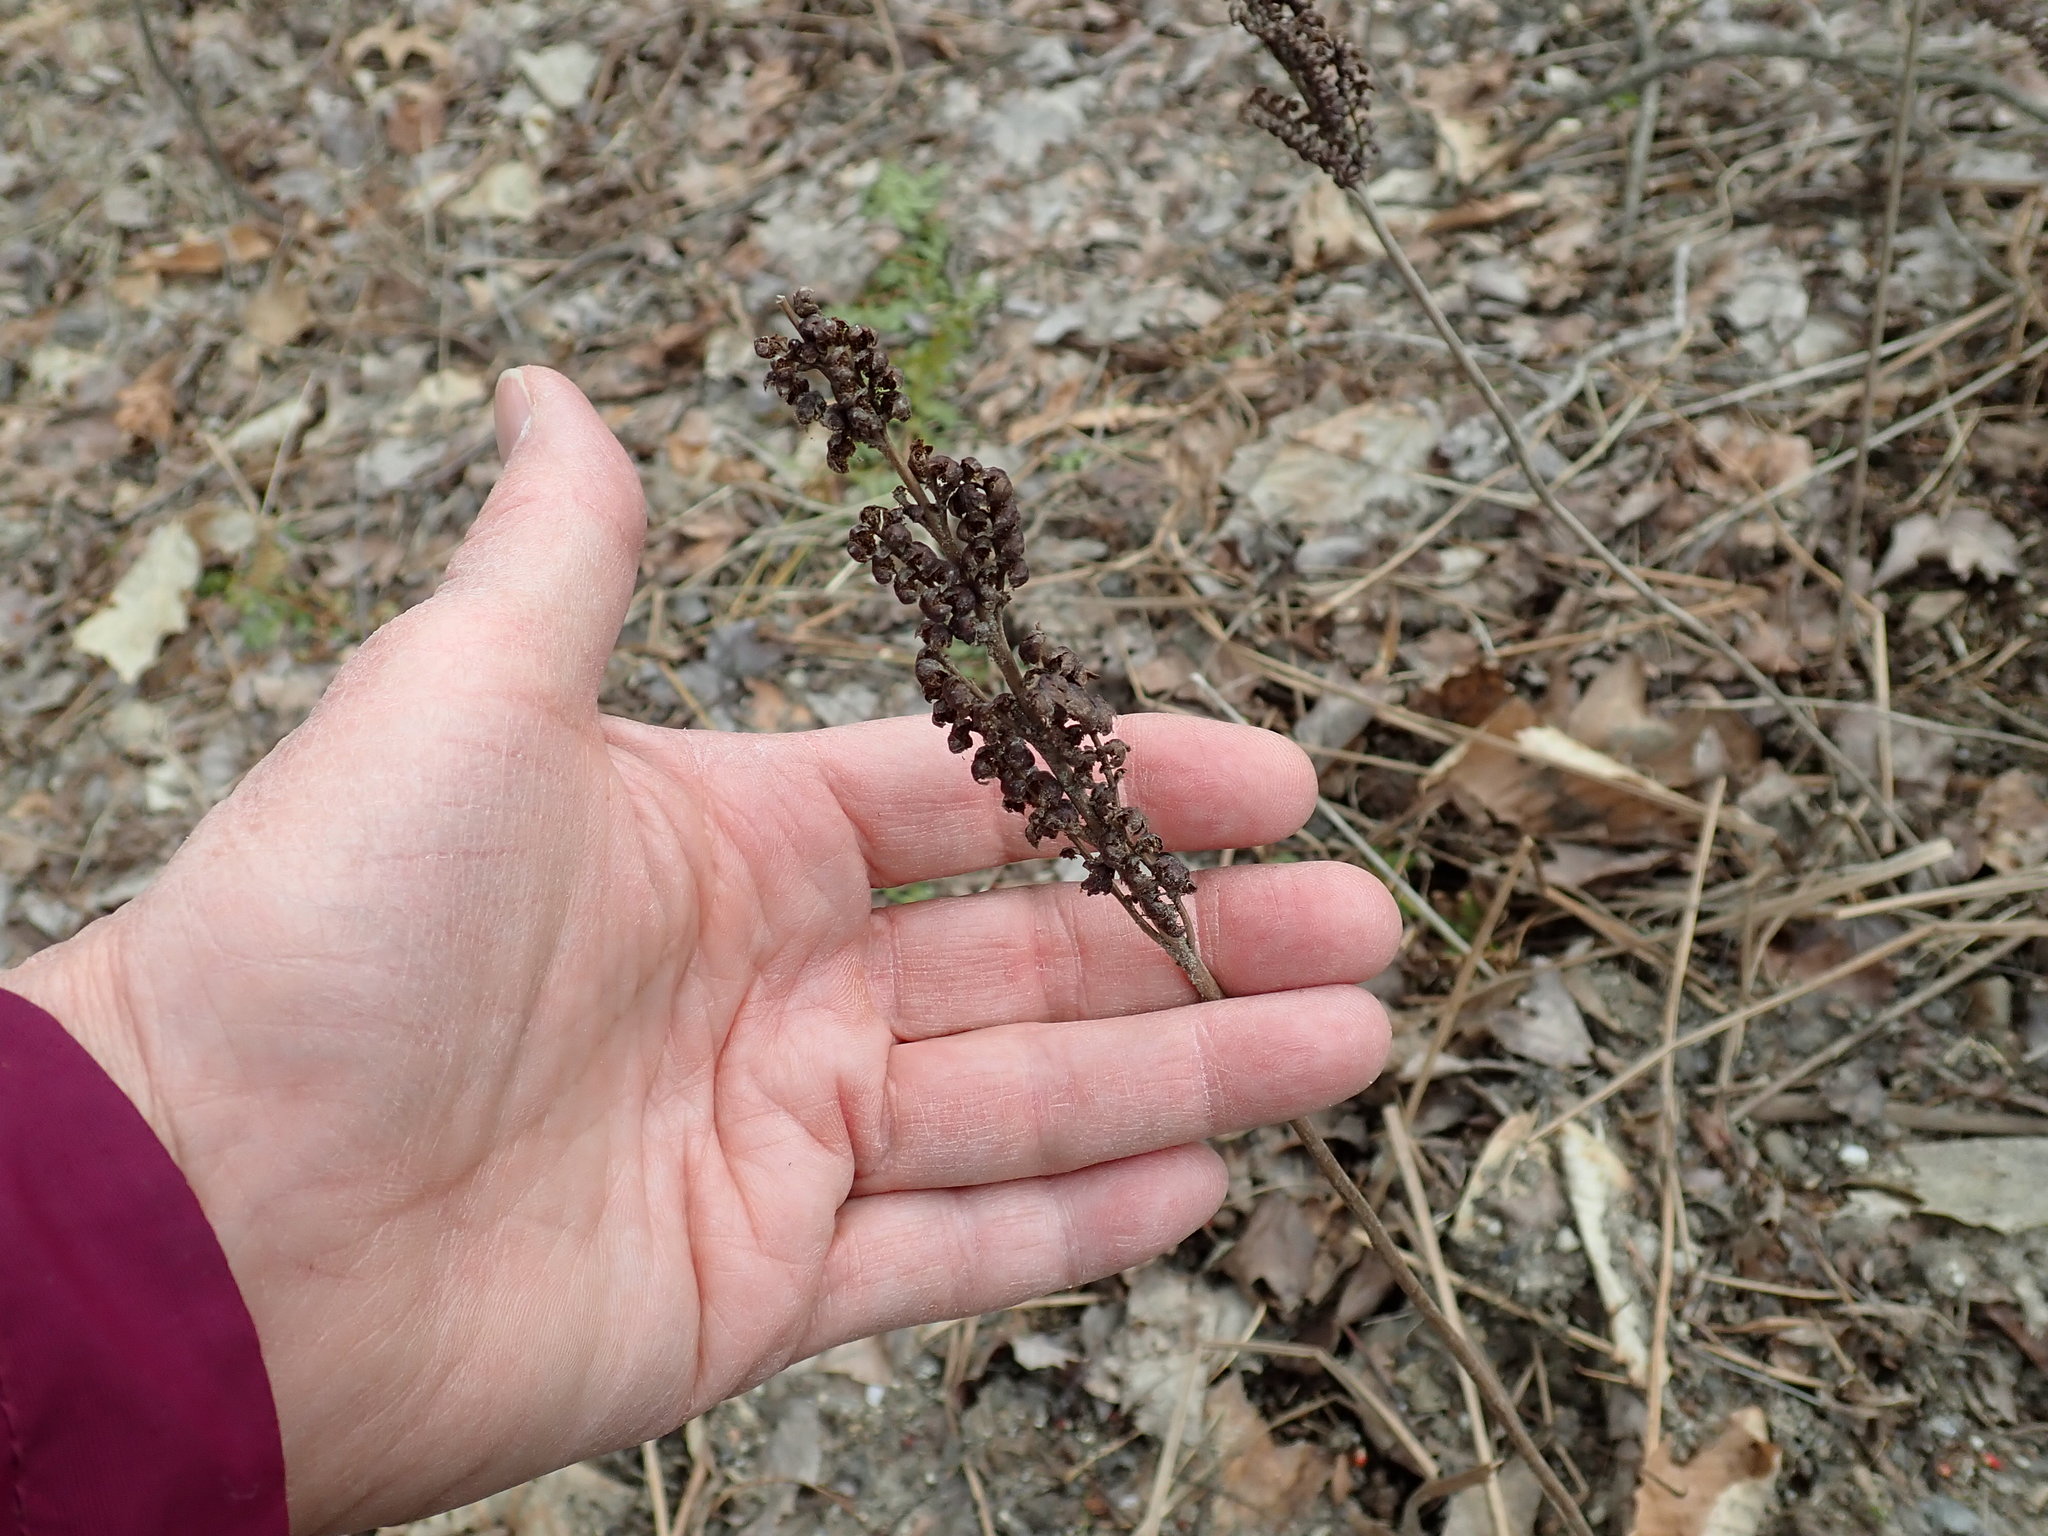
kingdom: Plantae
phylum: Tracheophyta
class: Polypodiopsida
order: Polypodiales
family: Onocleaceae
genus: Onoclea
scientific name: Onoclea sensibilis
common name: Sensitive fern
